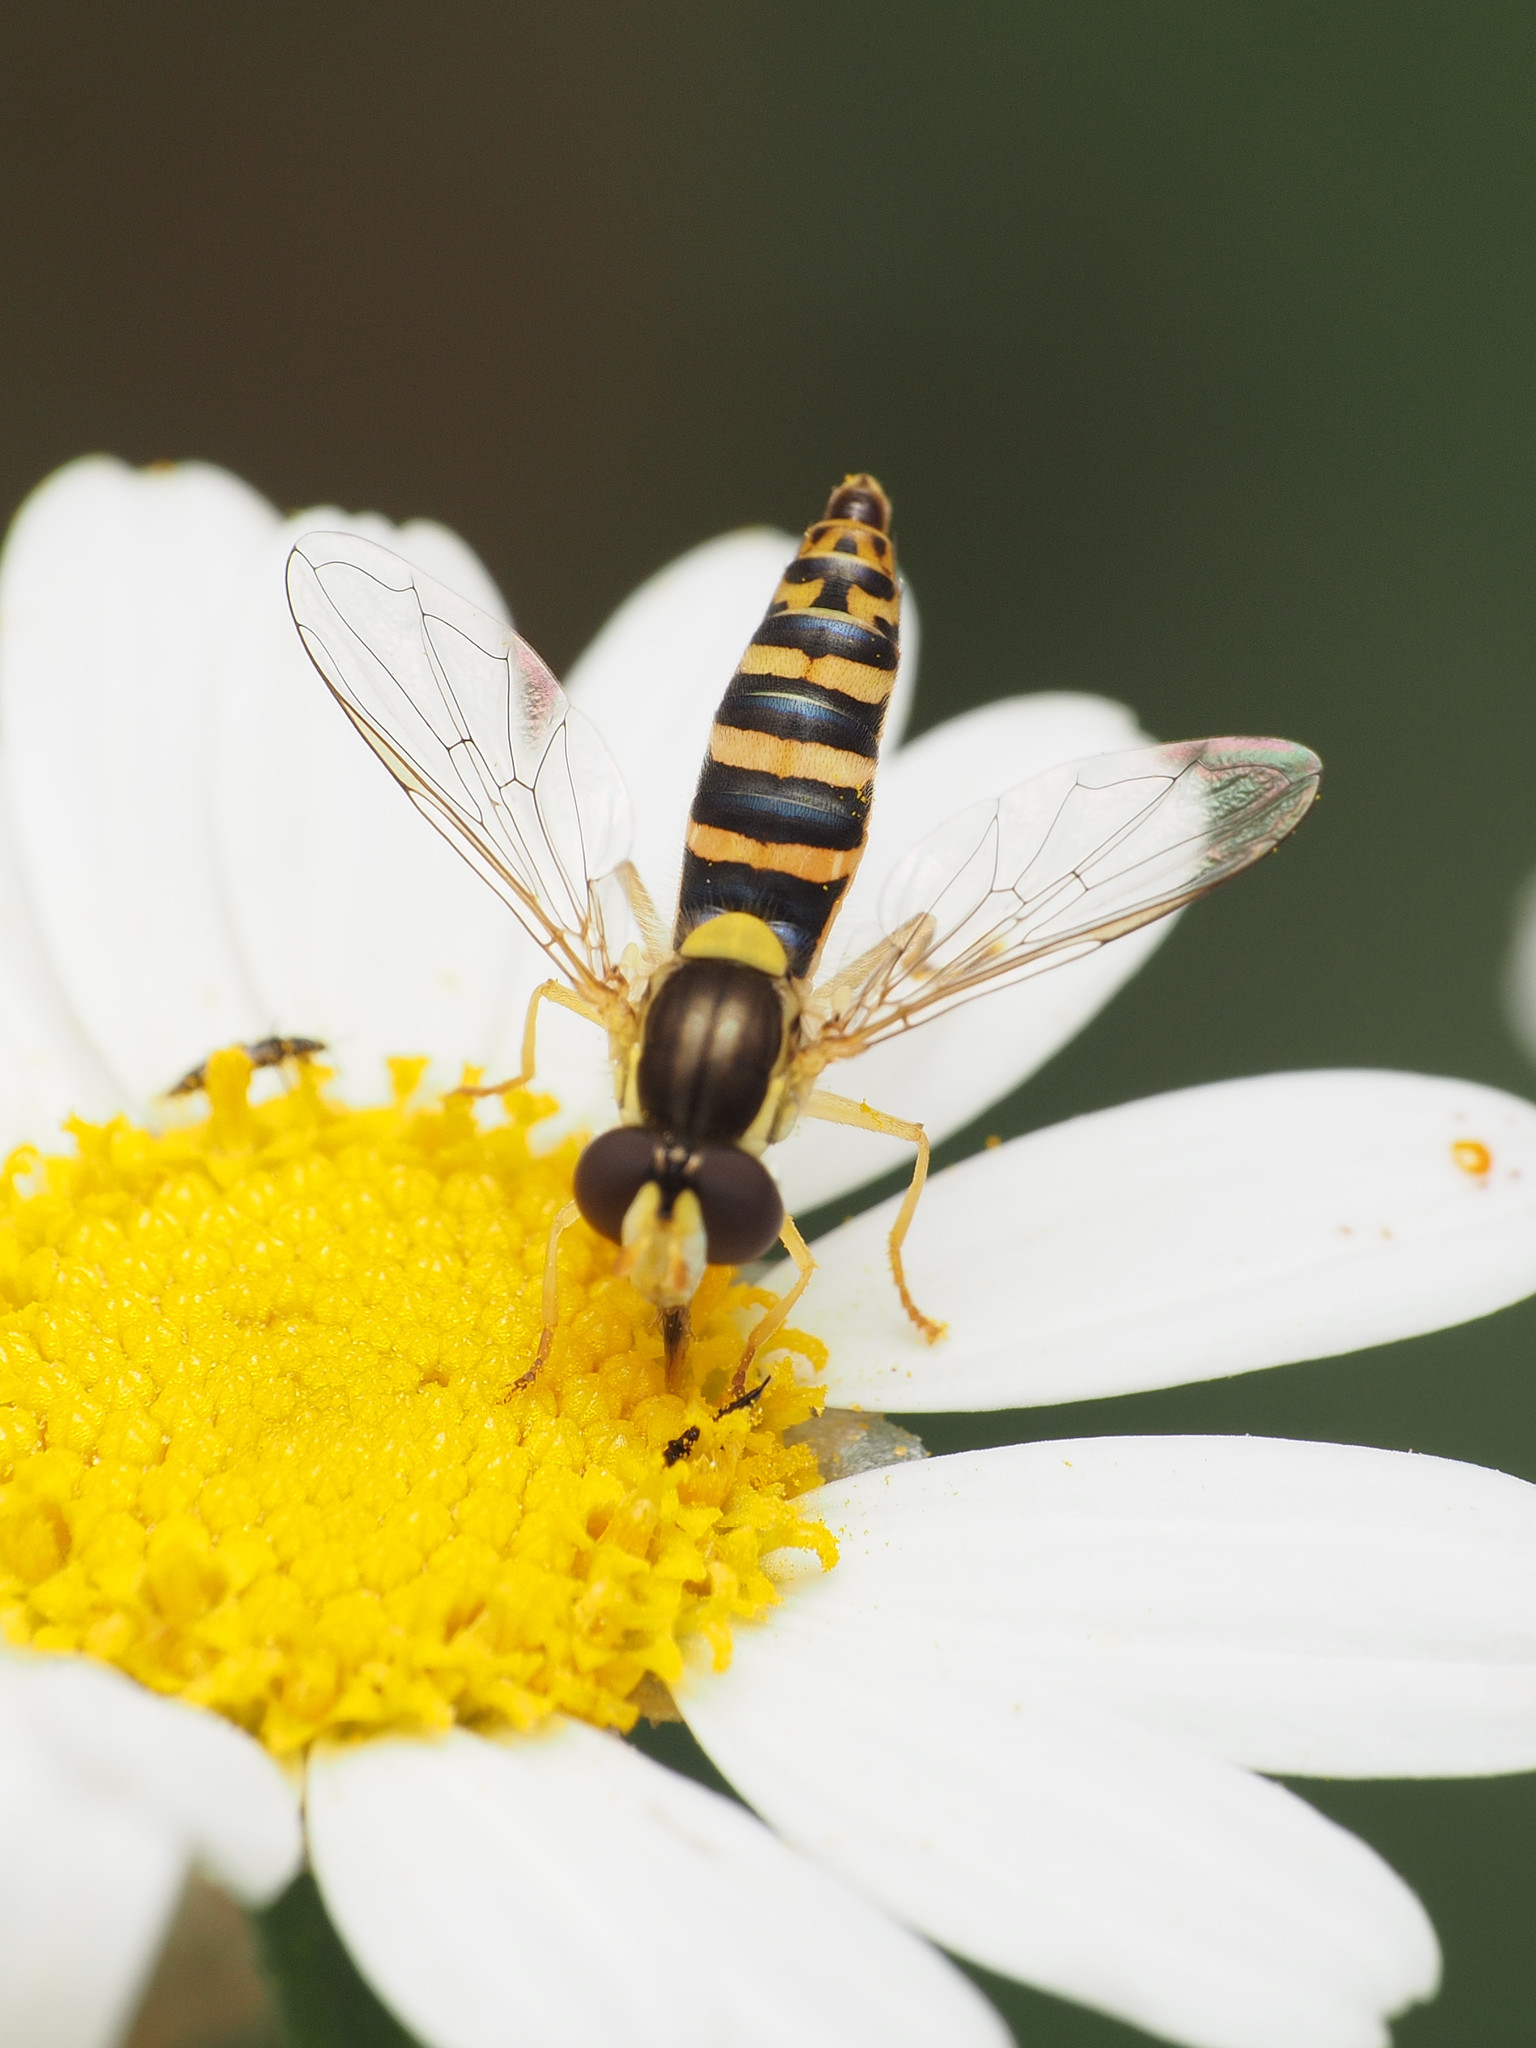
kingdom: Animalia
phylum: Arthropoda
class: Insecta
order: Diptera
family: Syrphidae
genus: Sphaerophoria
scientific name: Sphaerophoria
